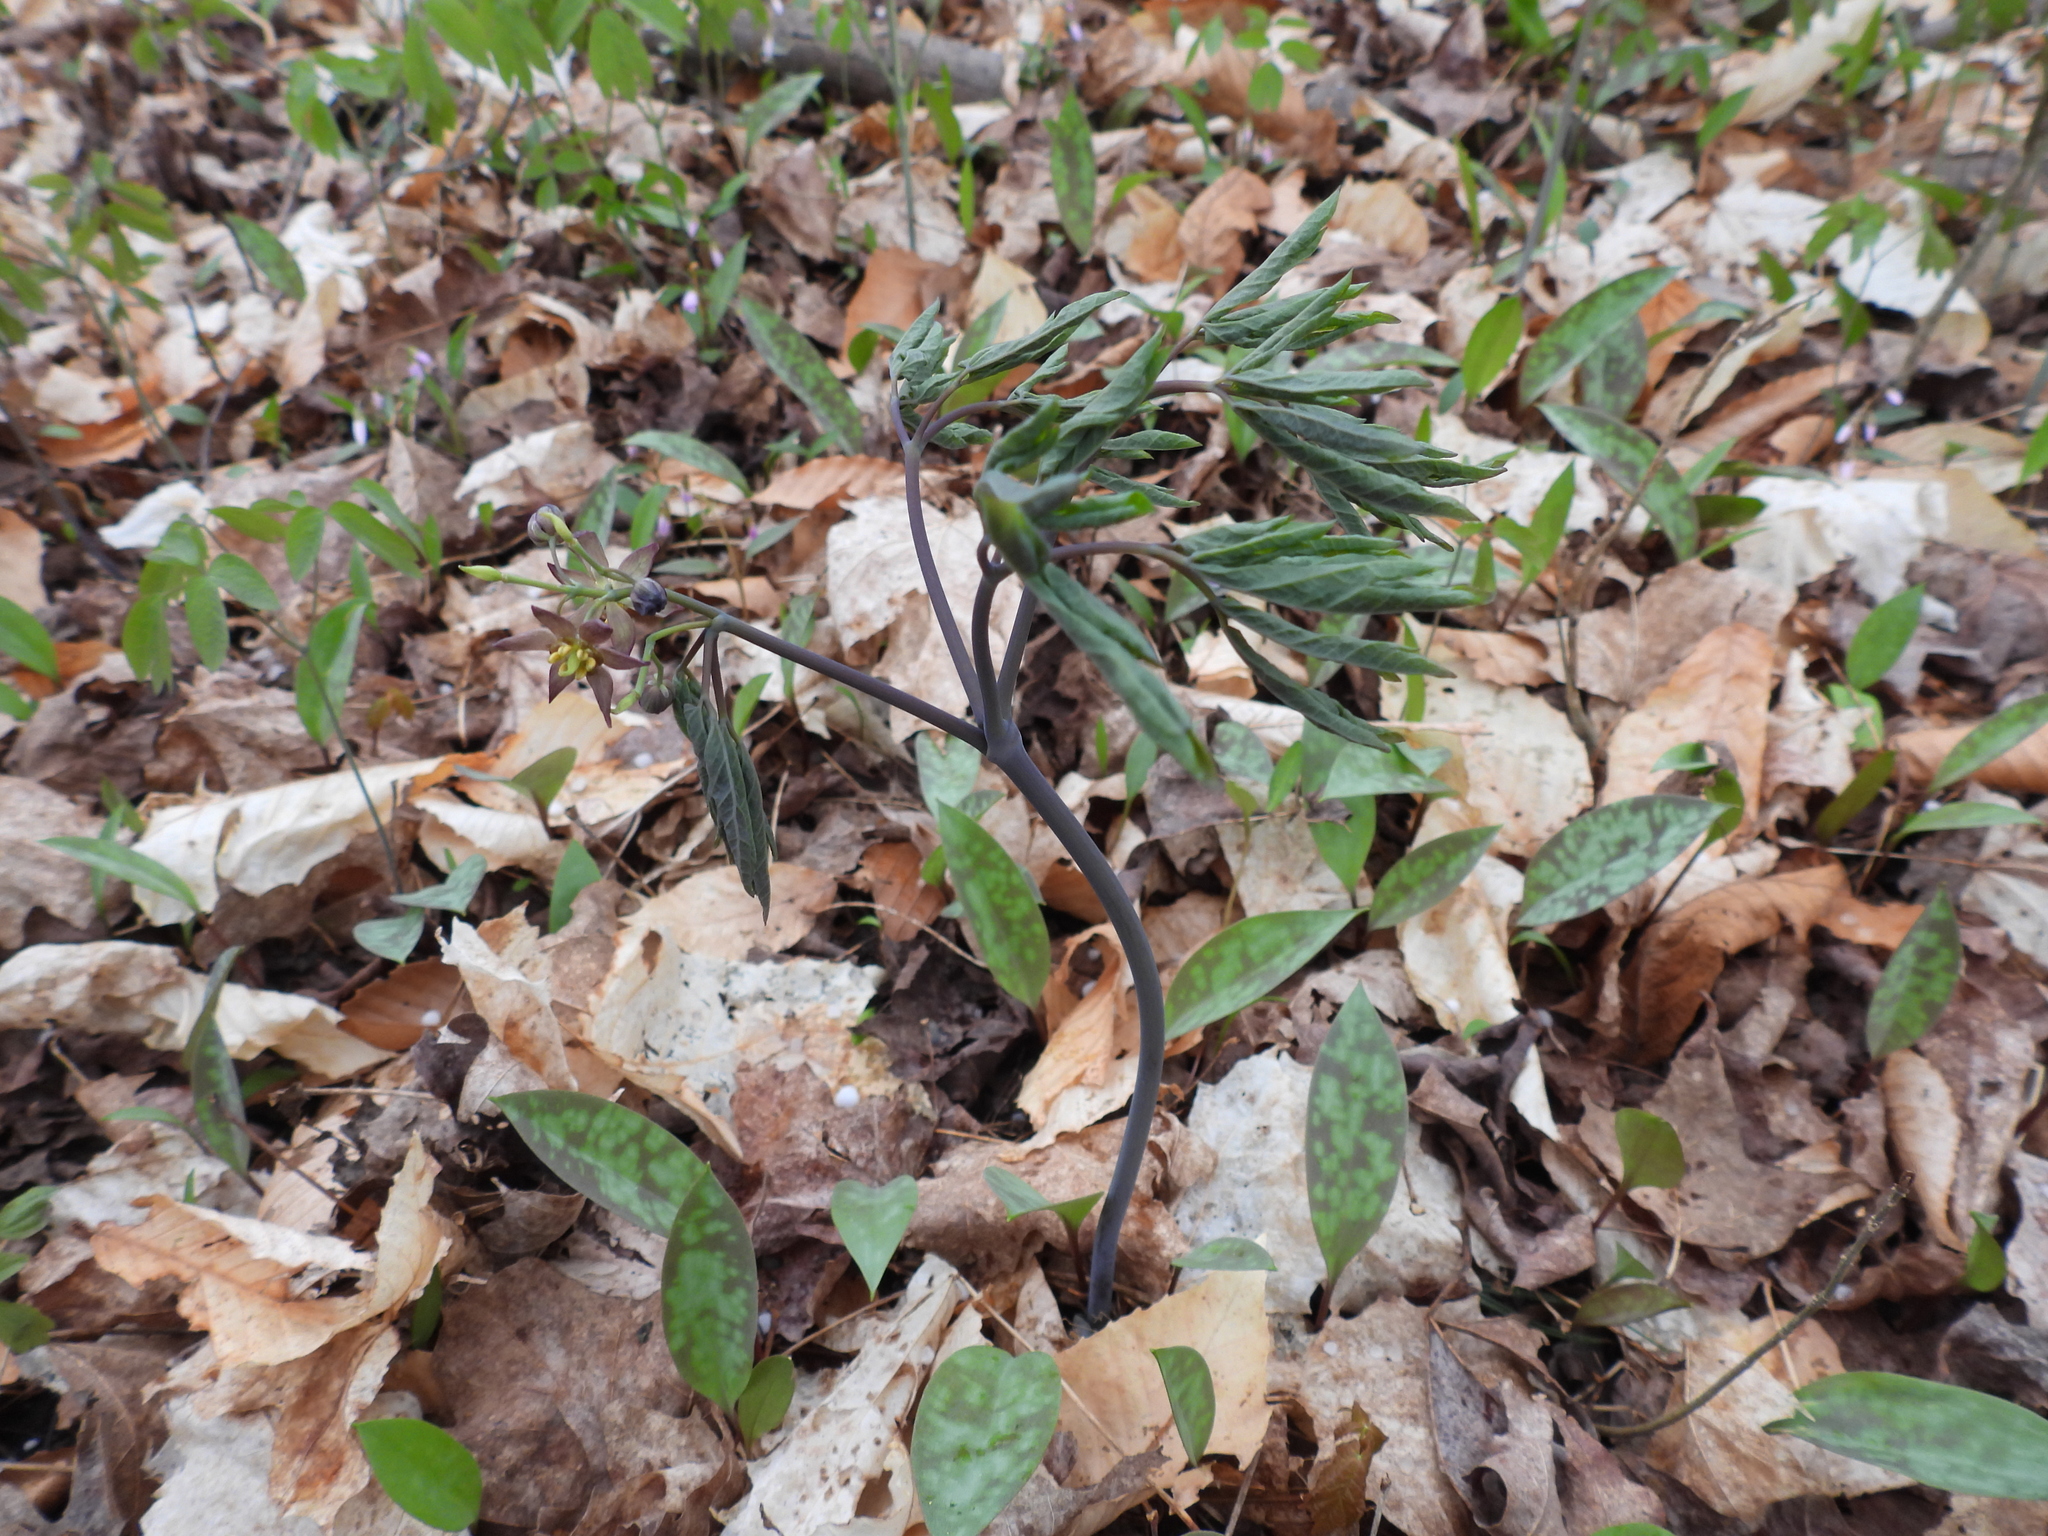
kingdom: Plantae
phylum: Tracheophyta
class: Magnoliopsida
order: Ranunculales
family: Berberidaceae
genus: Caulophyllum
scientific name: Caulophyllum giganteum
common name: Blue cohosh
